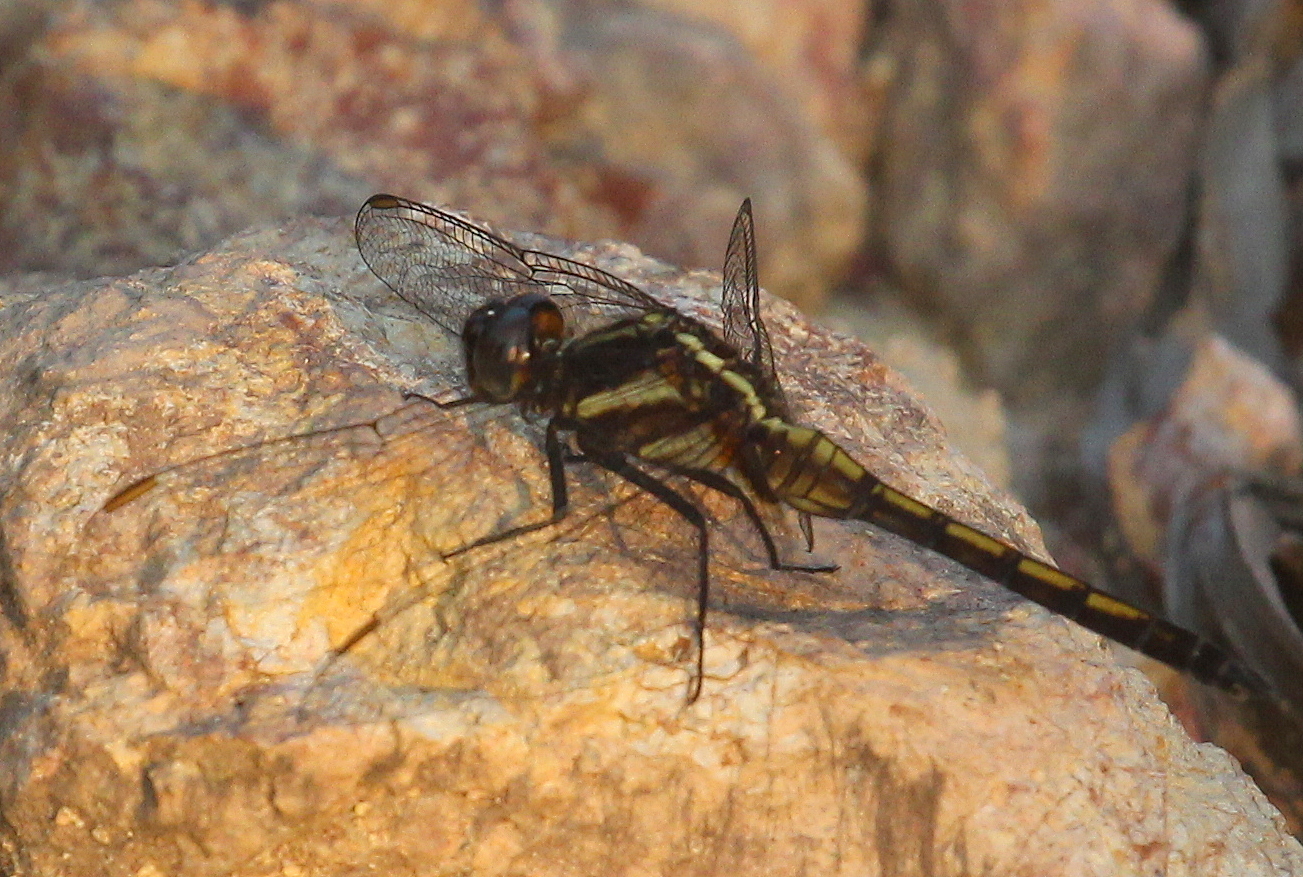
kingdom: Animalia
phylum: Arthropoda
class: Insecta
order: Odonata
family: Libellulidae
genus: Orthetrum
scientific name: Orthetrum glaucum
